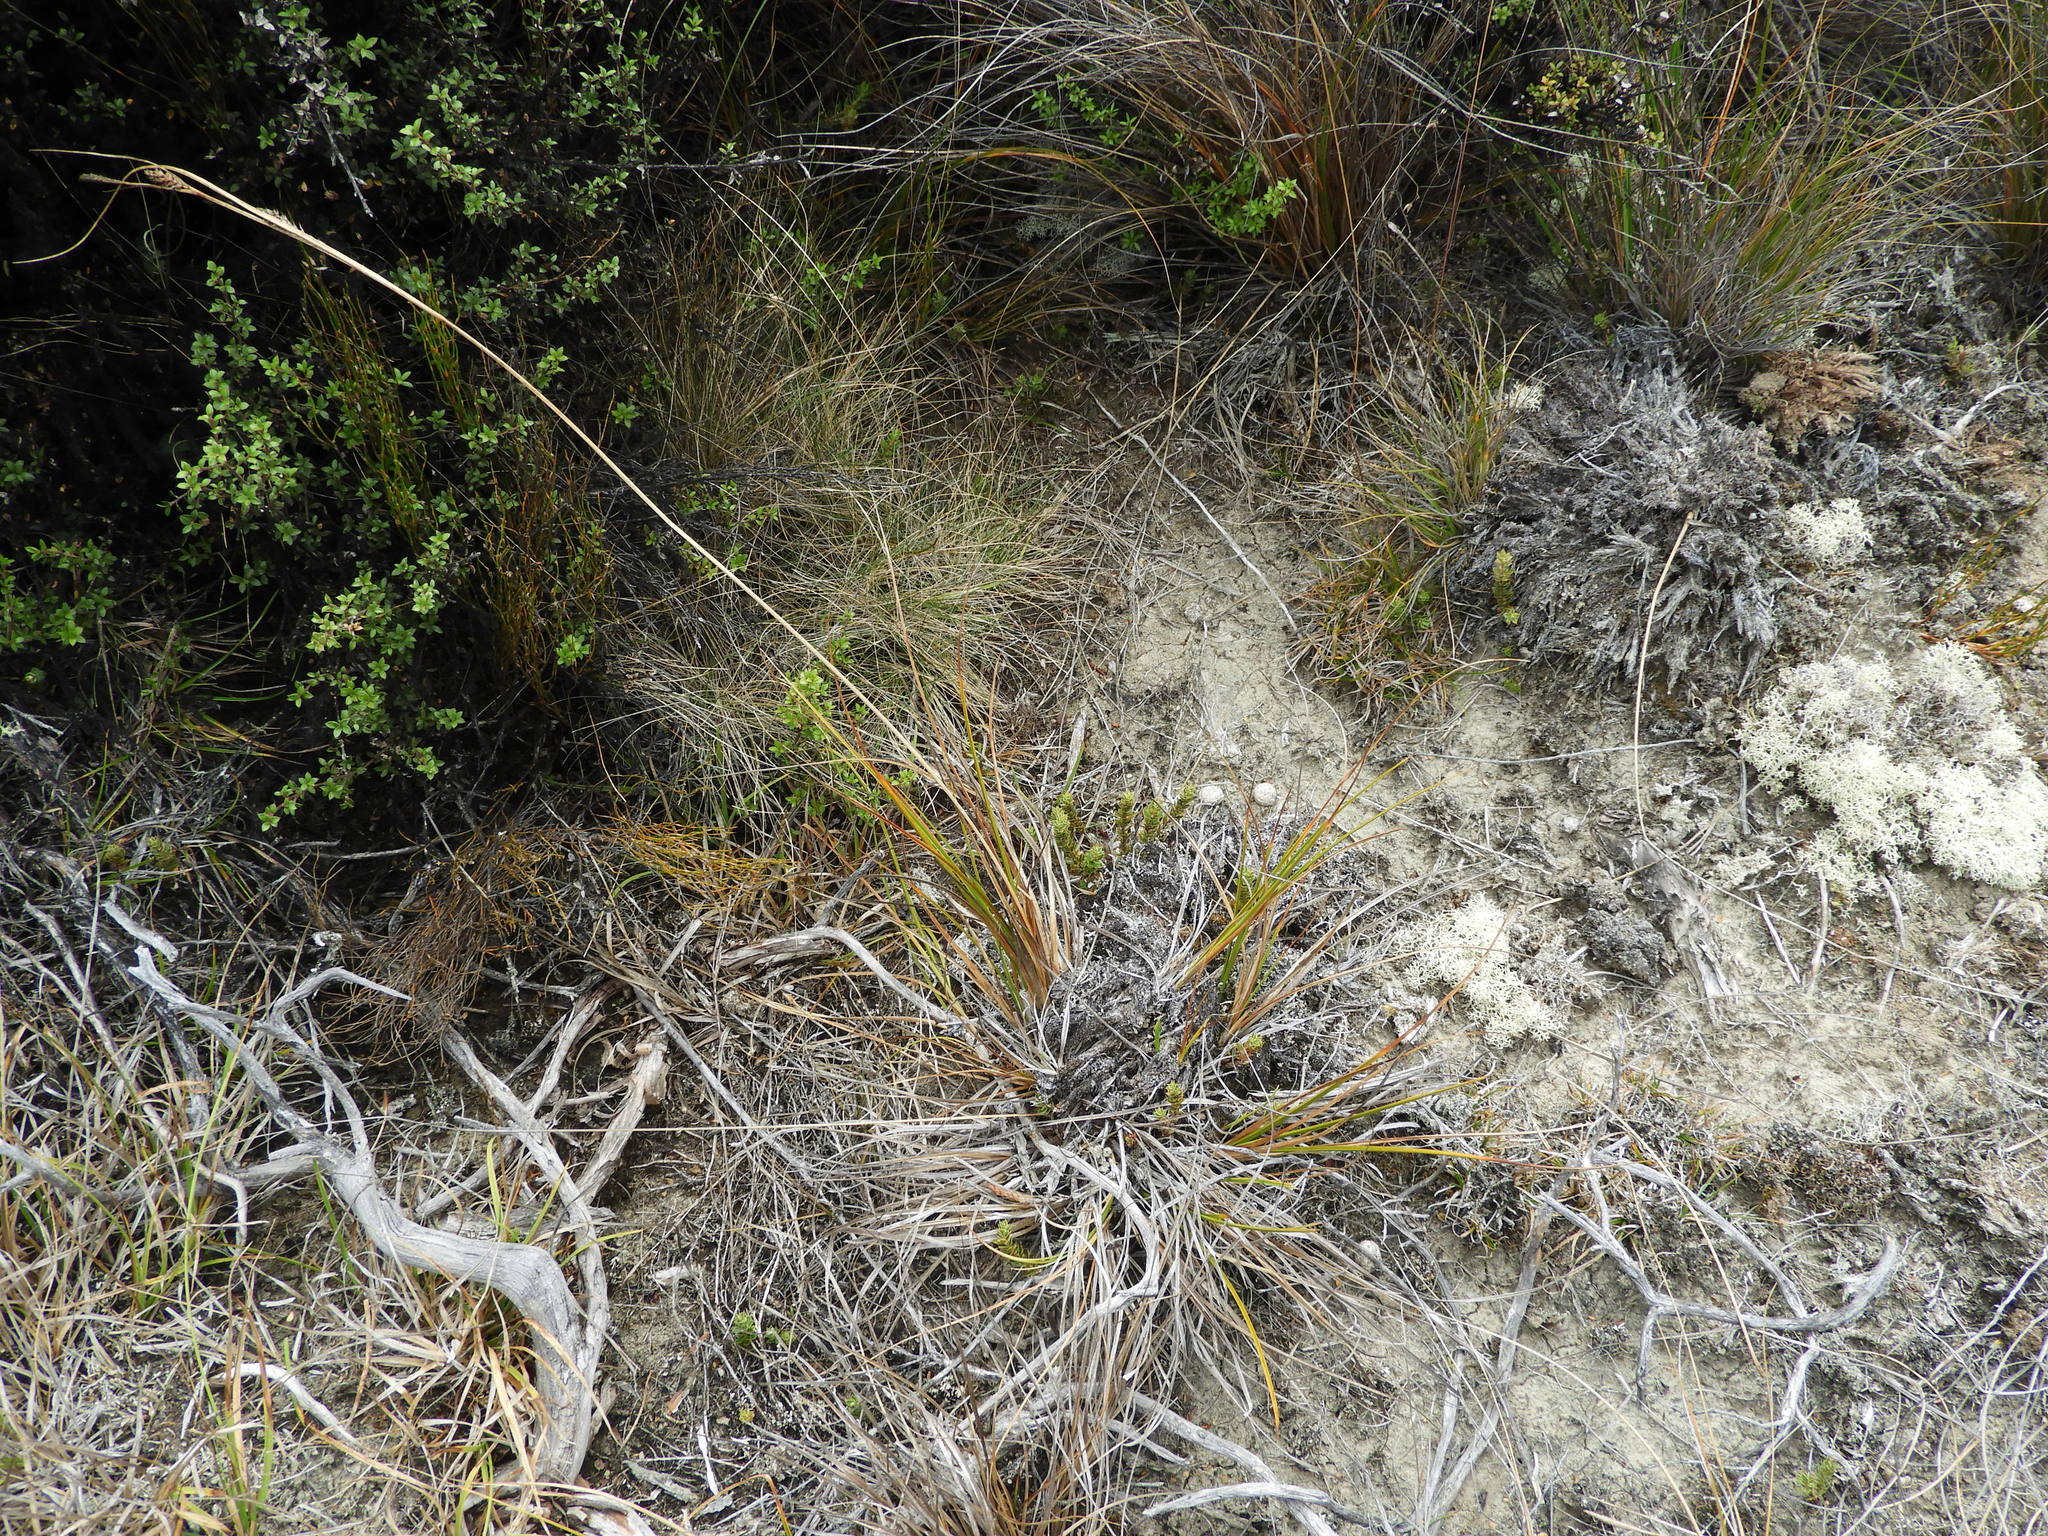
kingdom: Plantae
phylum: Tracheophyta
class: Liliopsida
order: Poales
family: Cyperaceae
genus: Carex
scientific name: Carex devia
